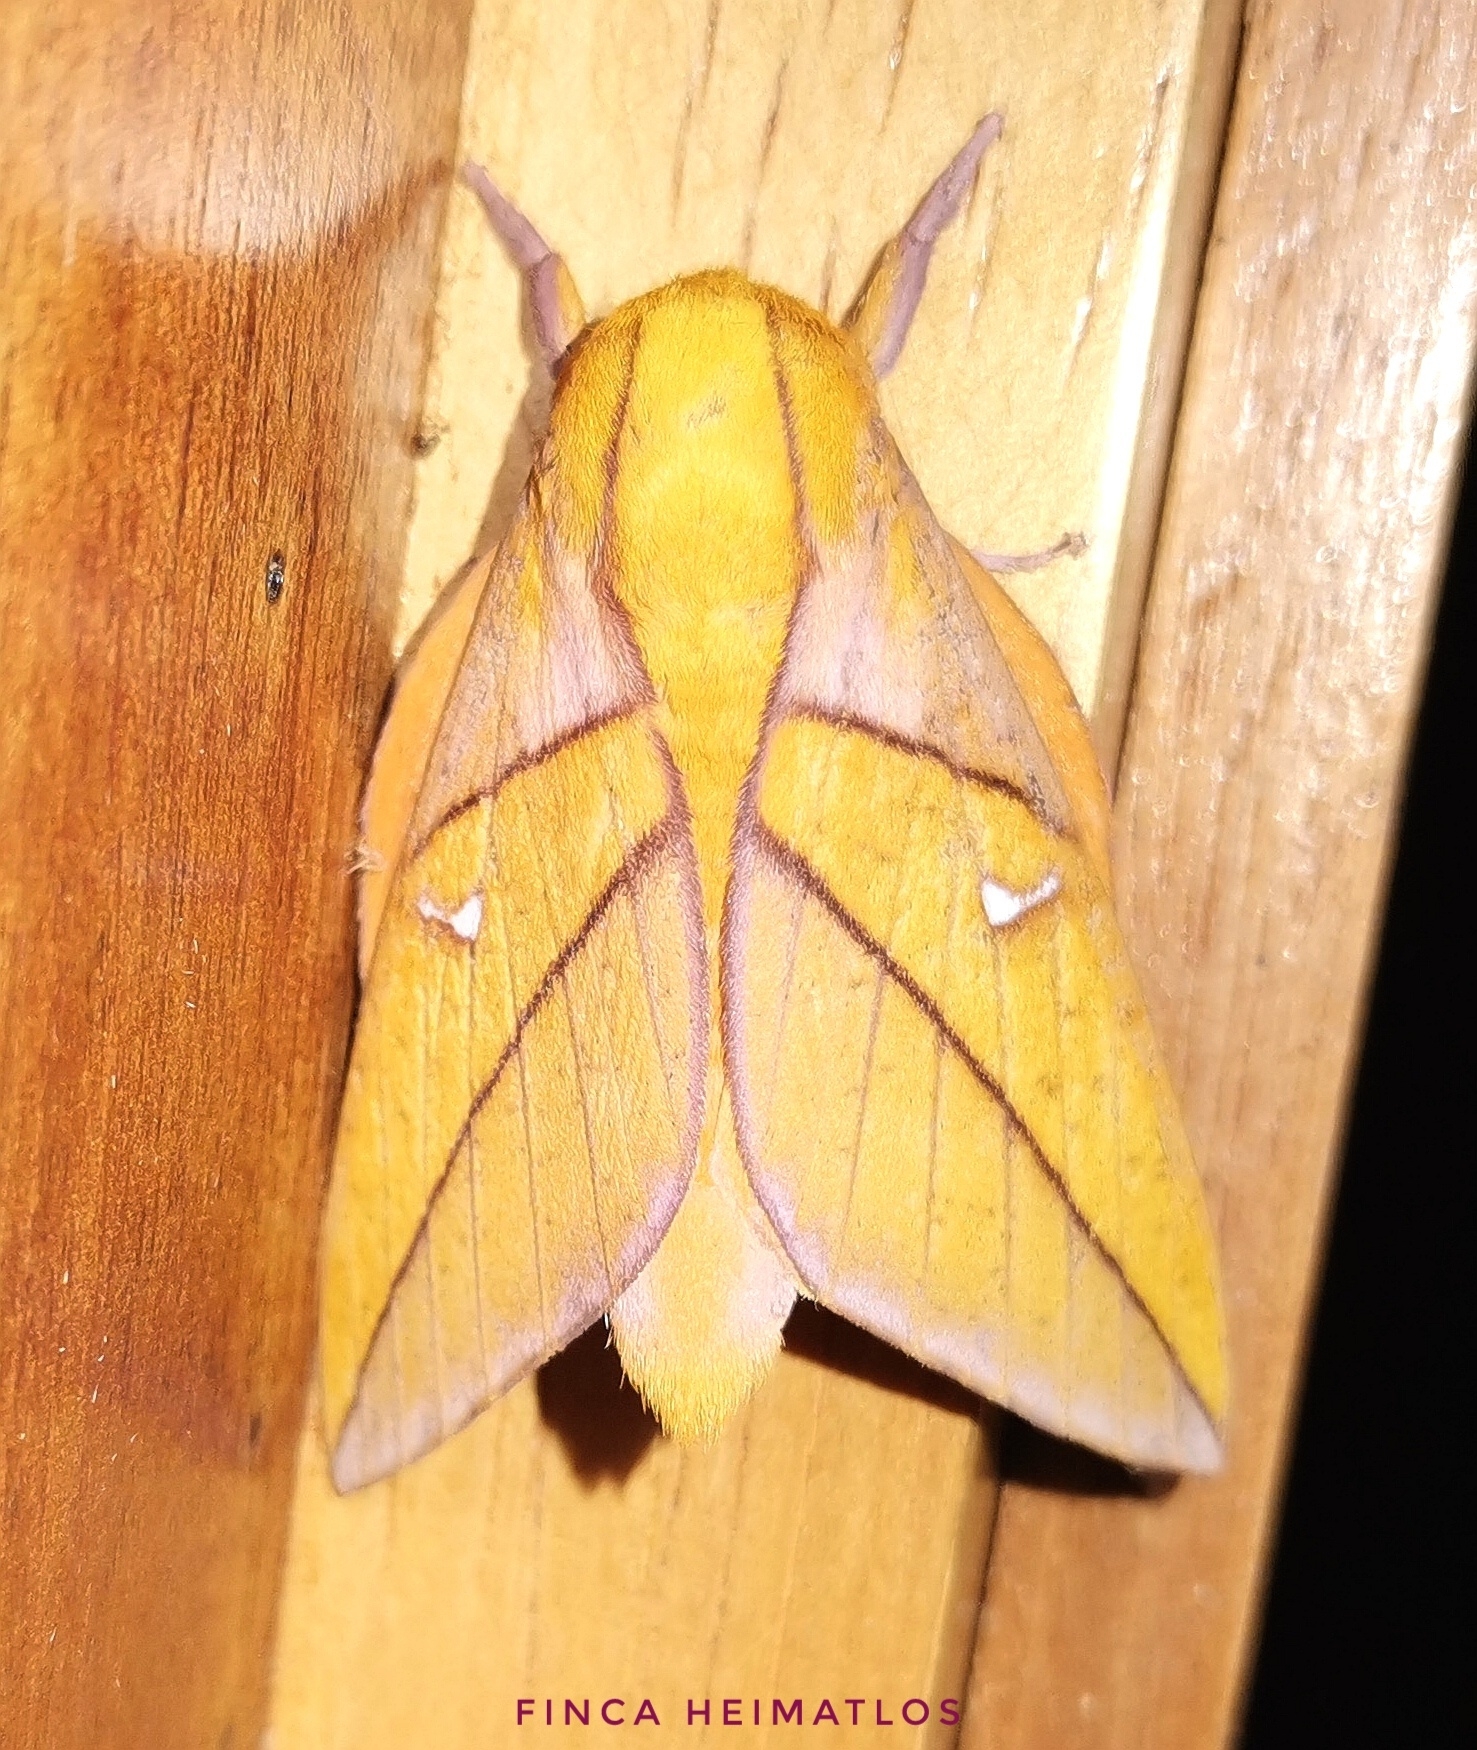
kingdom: Animalia
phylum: Arthropoda
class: Insecta
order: Lepidoptera
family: Saturniidae
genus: Adeloneivaia
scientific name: Adeloneivaia jason
